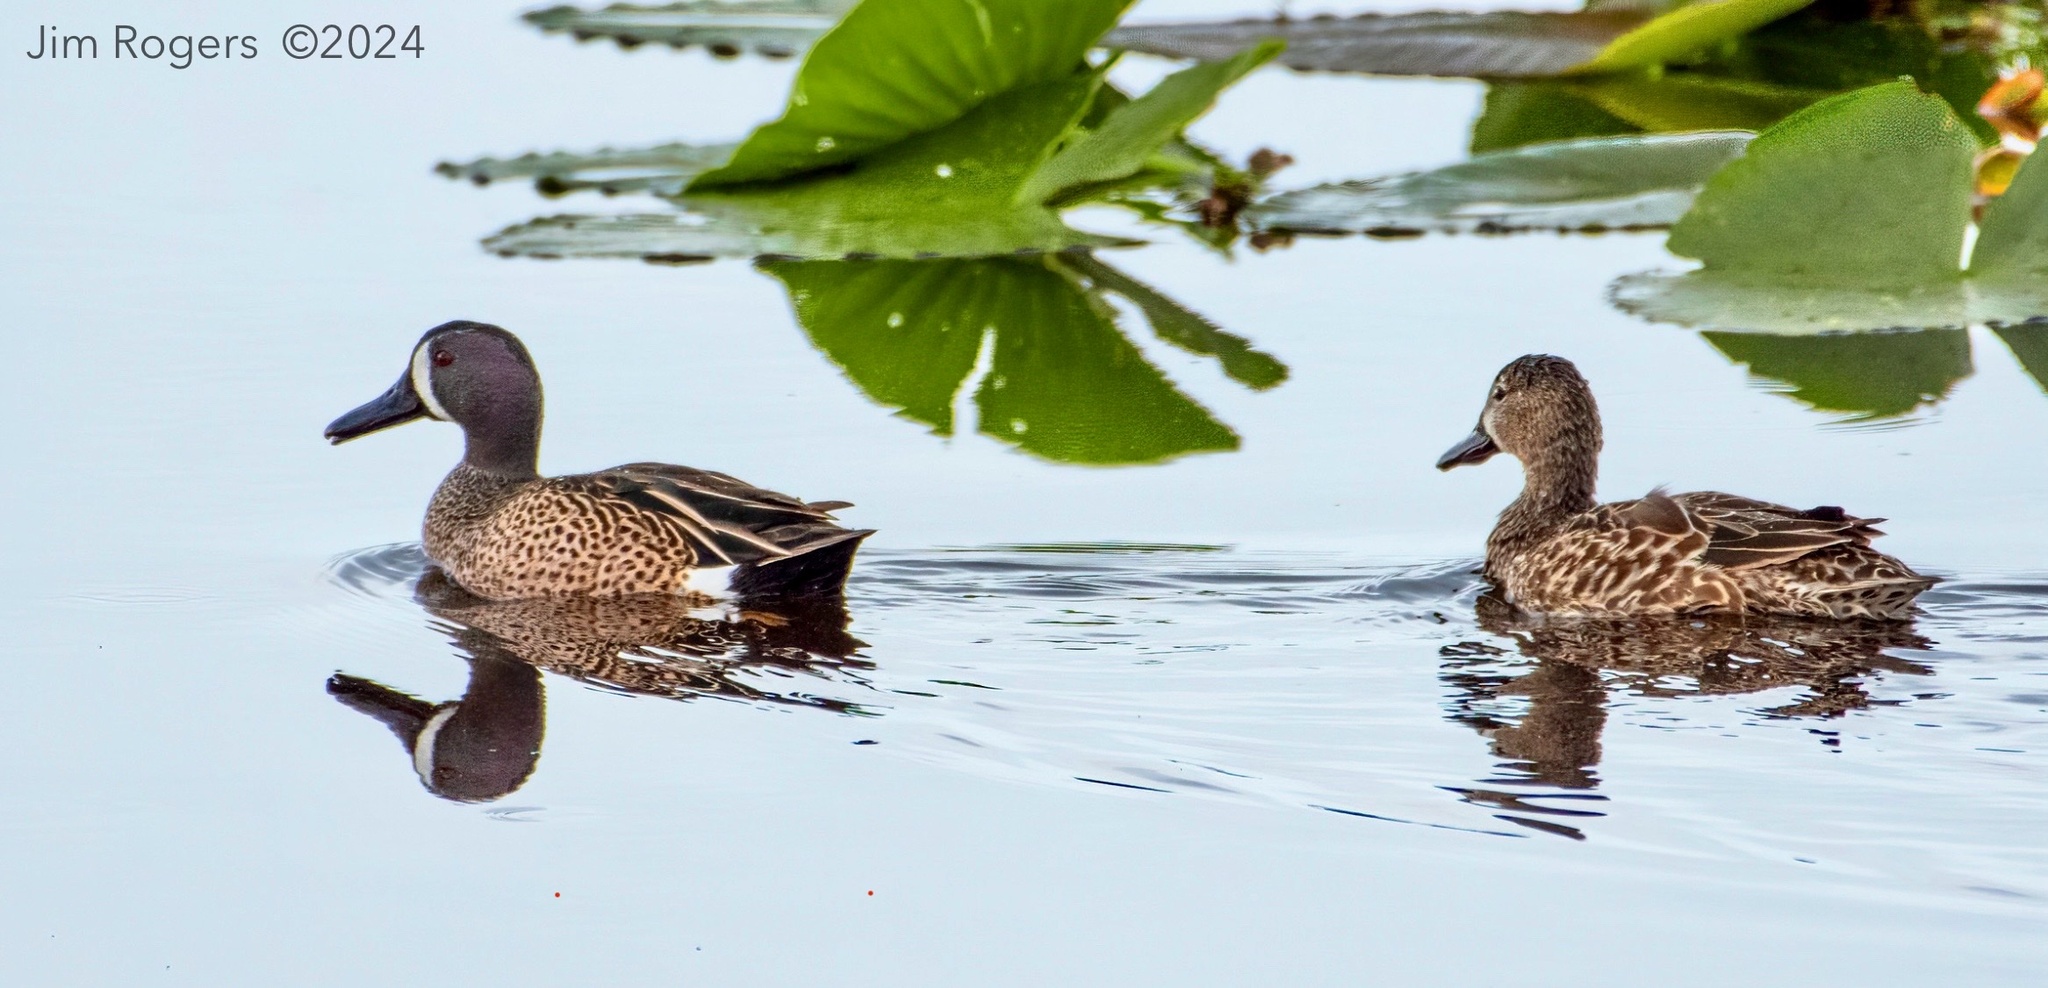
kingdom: Animalia
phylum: Chordata
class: Aves
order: Anseriformes
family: Anatidae
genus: Spatula
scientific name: Spatula discors
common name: Blue-winged teal
